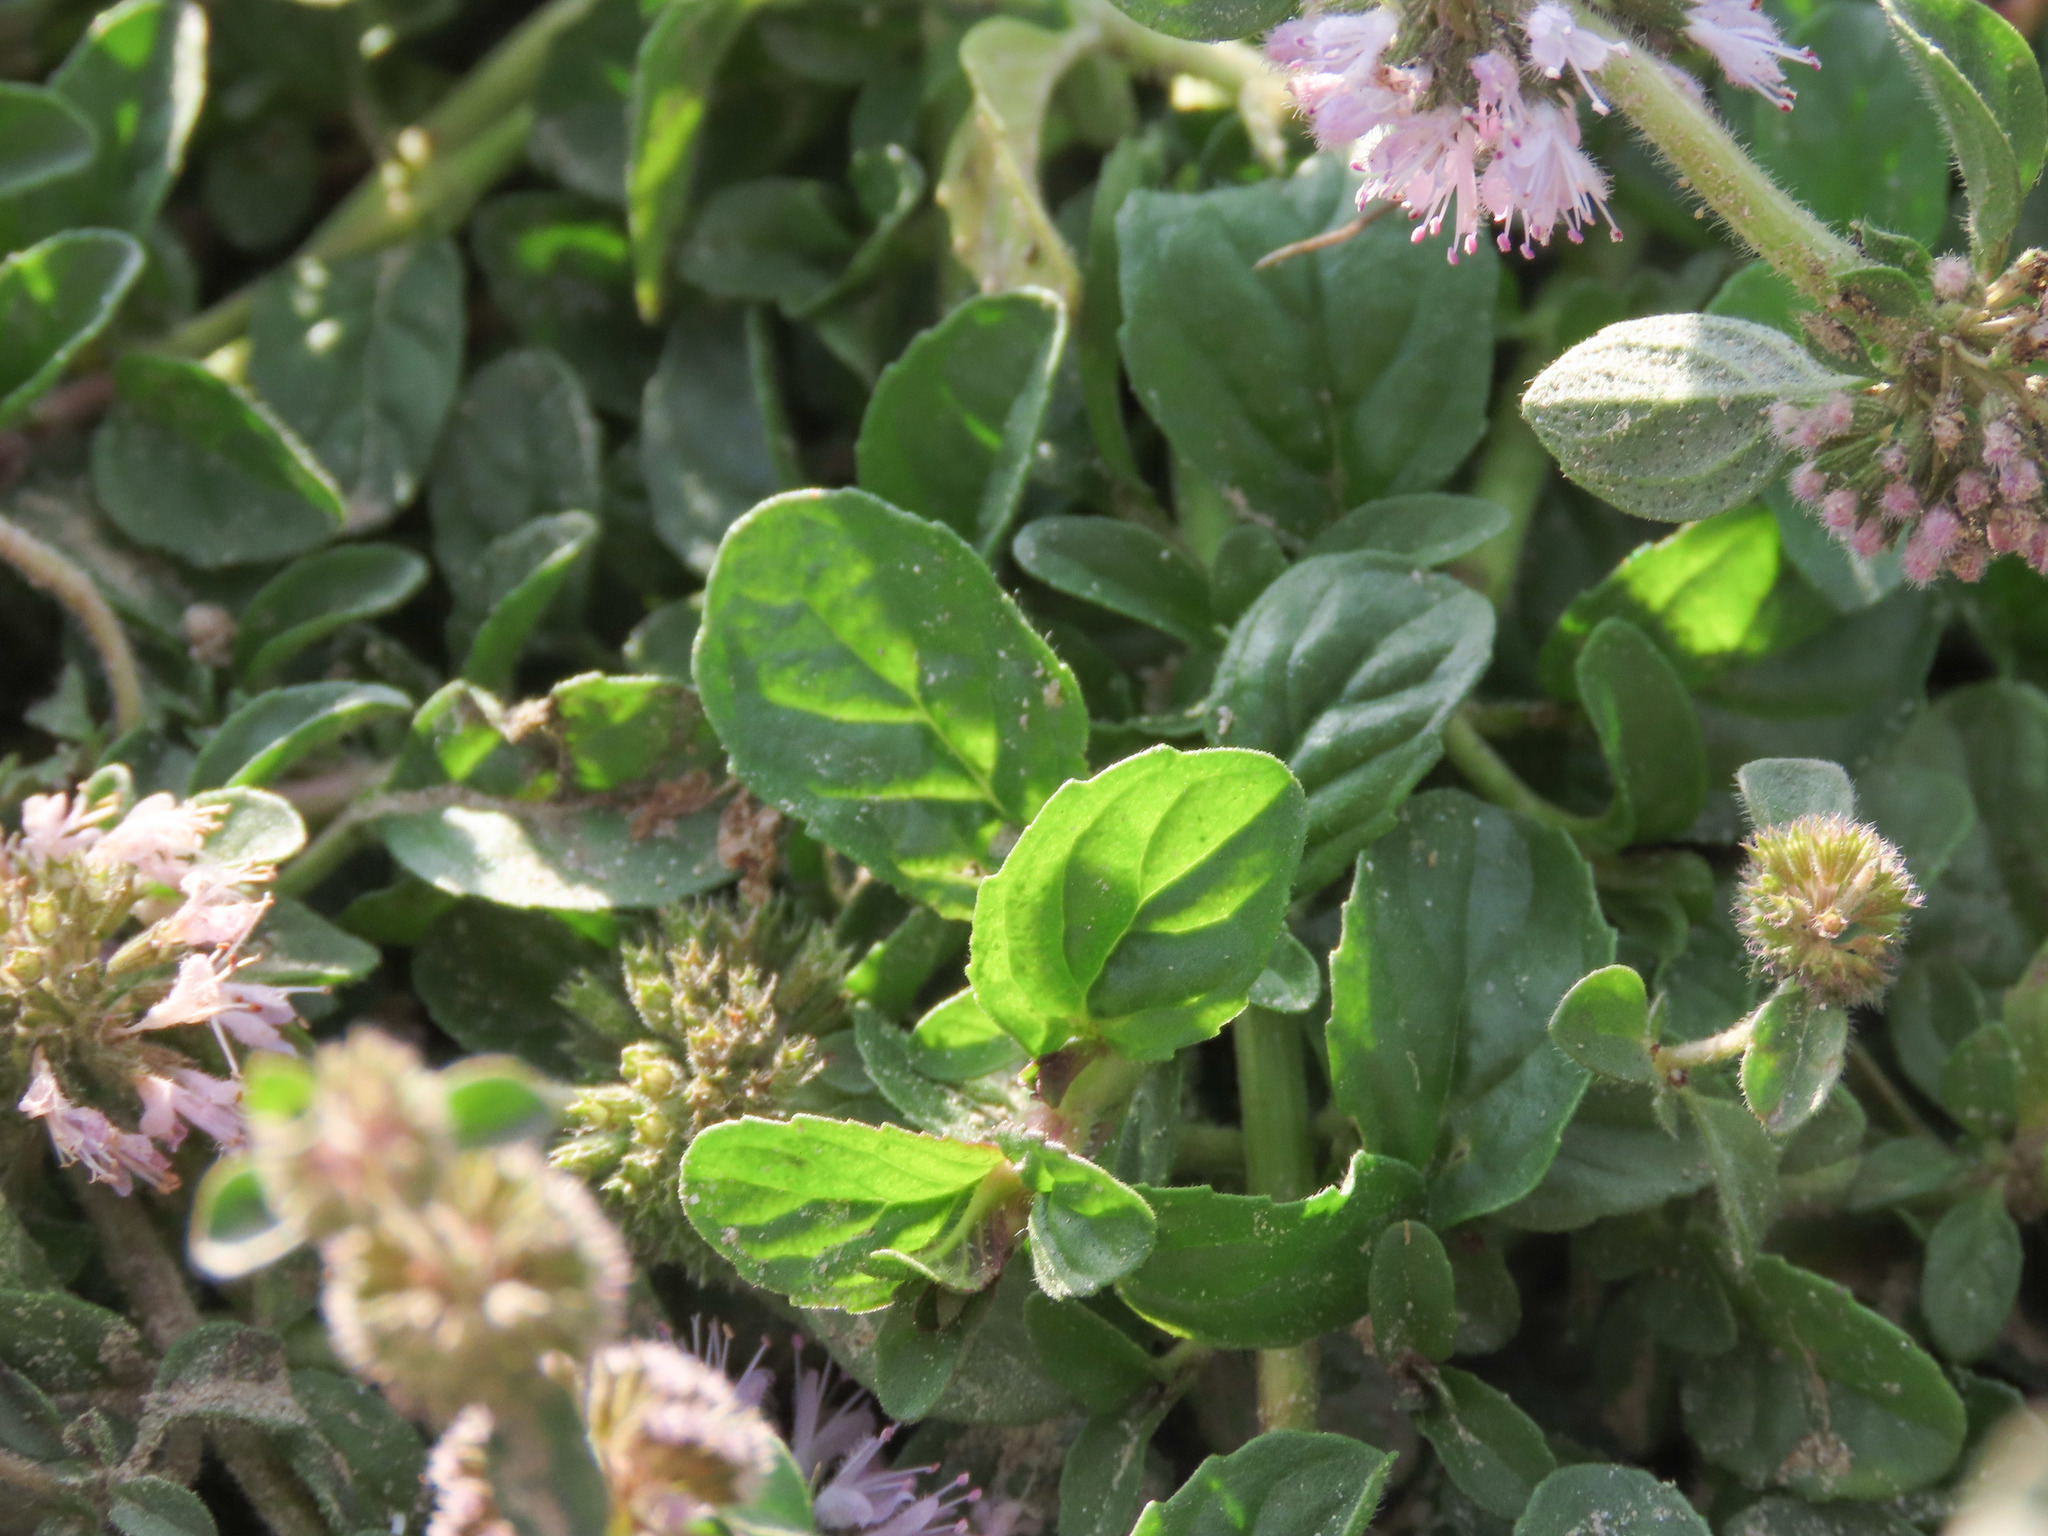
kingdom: Plantae
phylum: Tracheophyta
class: Magnoliopsida
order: Lamiales
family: Lamiaceae
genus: Mentha
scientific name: Mentha pulegium
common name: Pennyroyal
